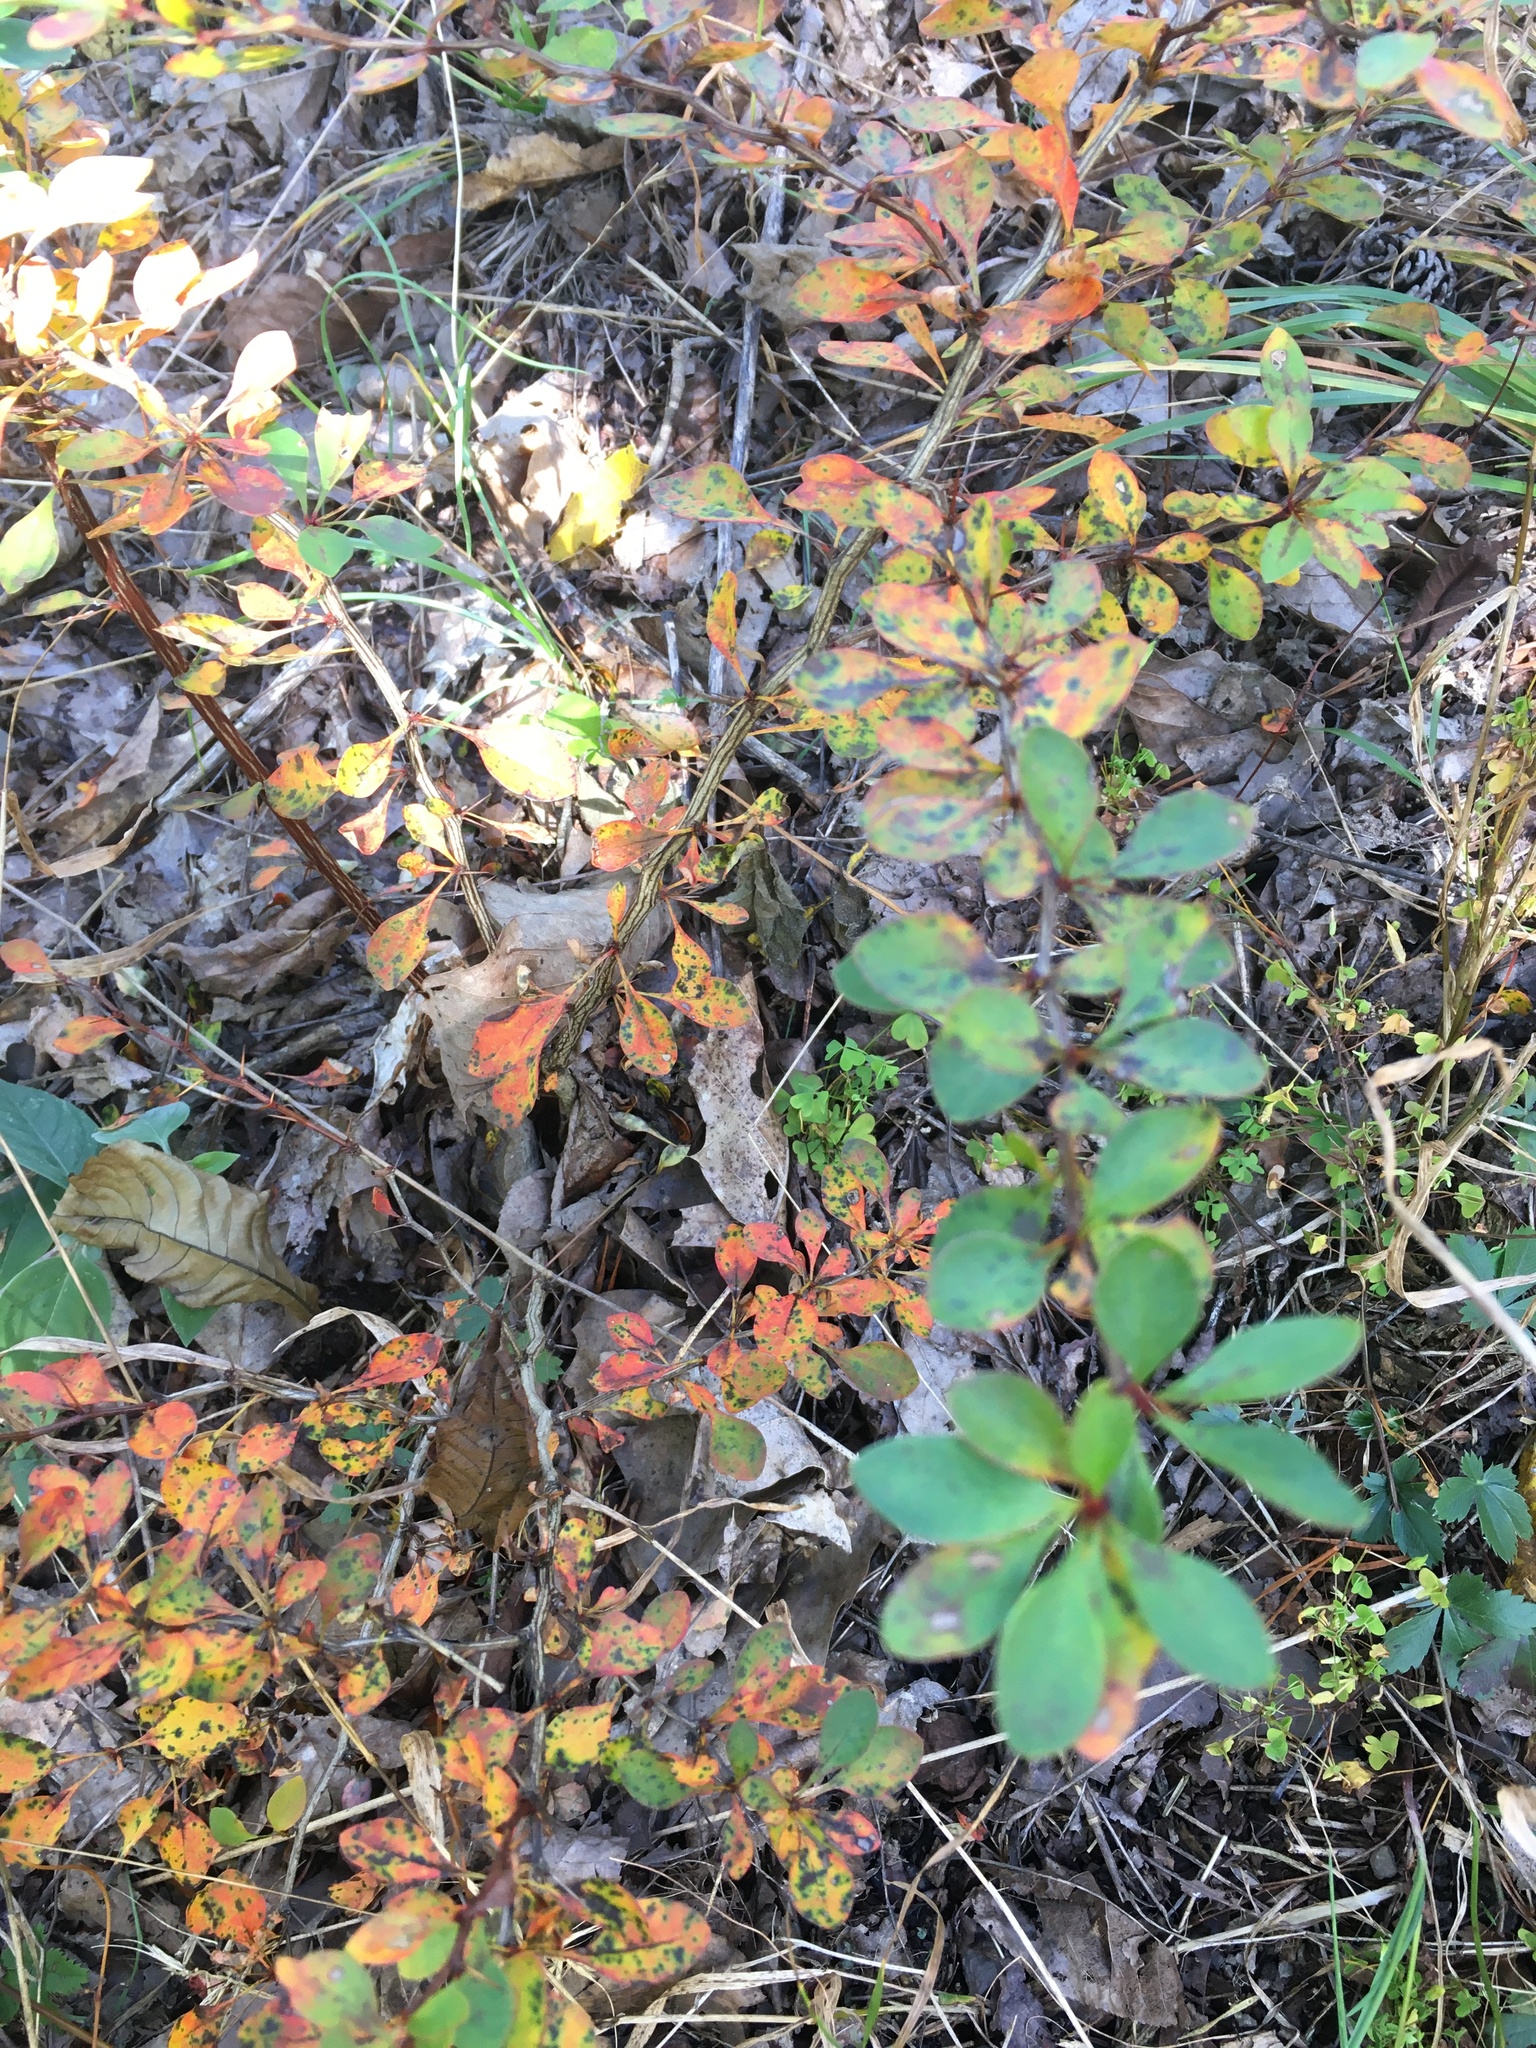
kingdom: Plantae
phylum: Tracheophyta
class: Magnoliopsida
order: Ranunculales
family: Berberidaceae
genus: Berberis
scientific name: Berberis thunbergii
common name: Japanese barberry
